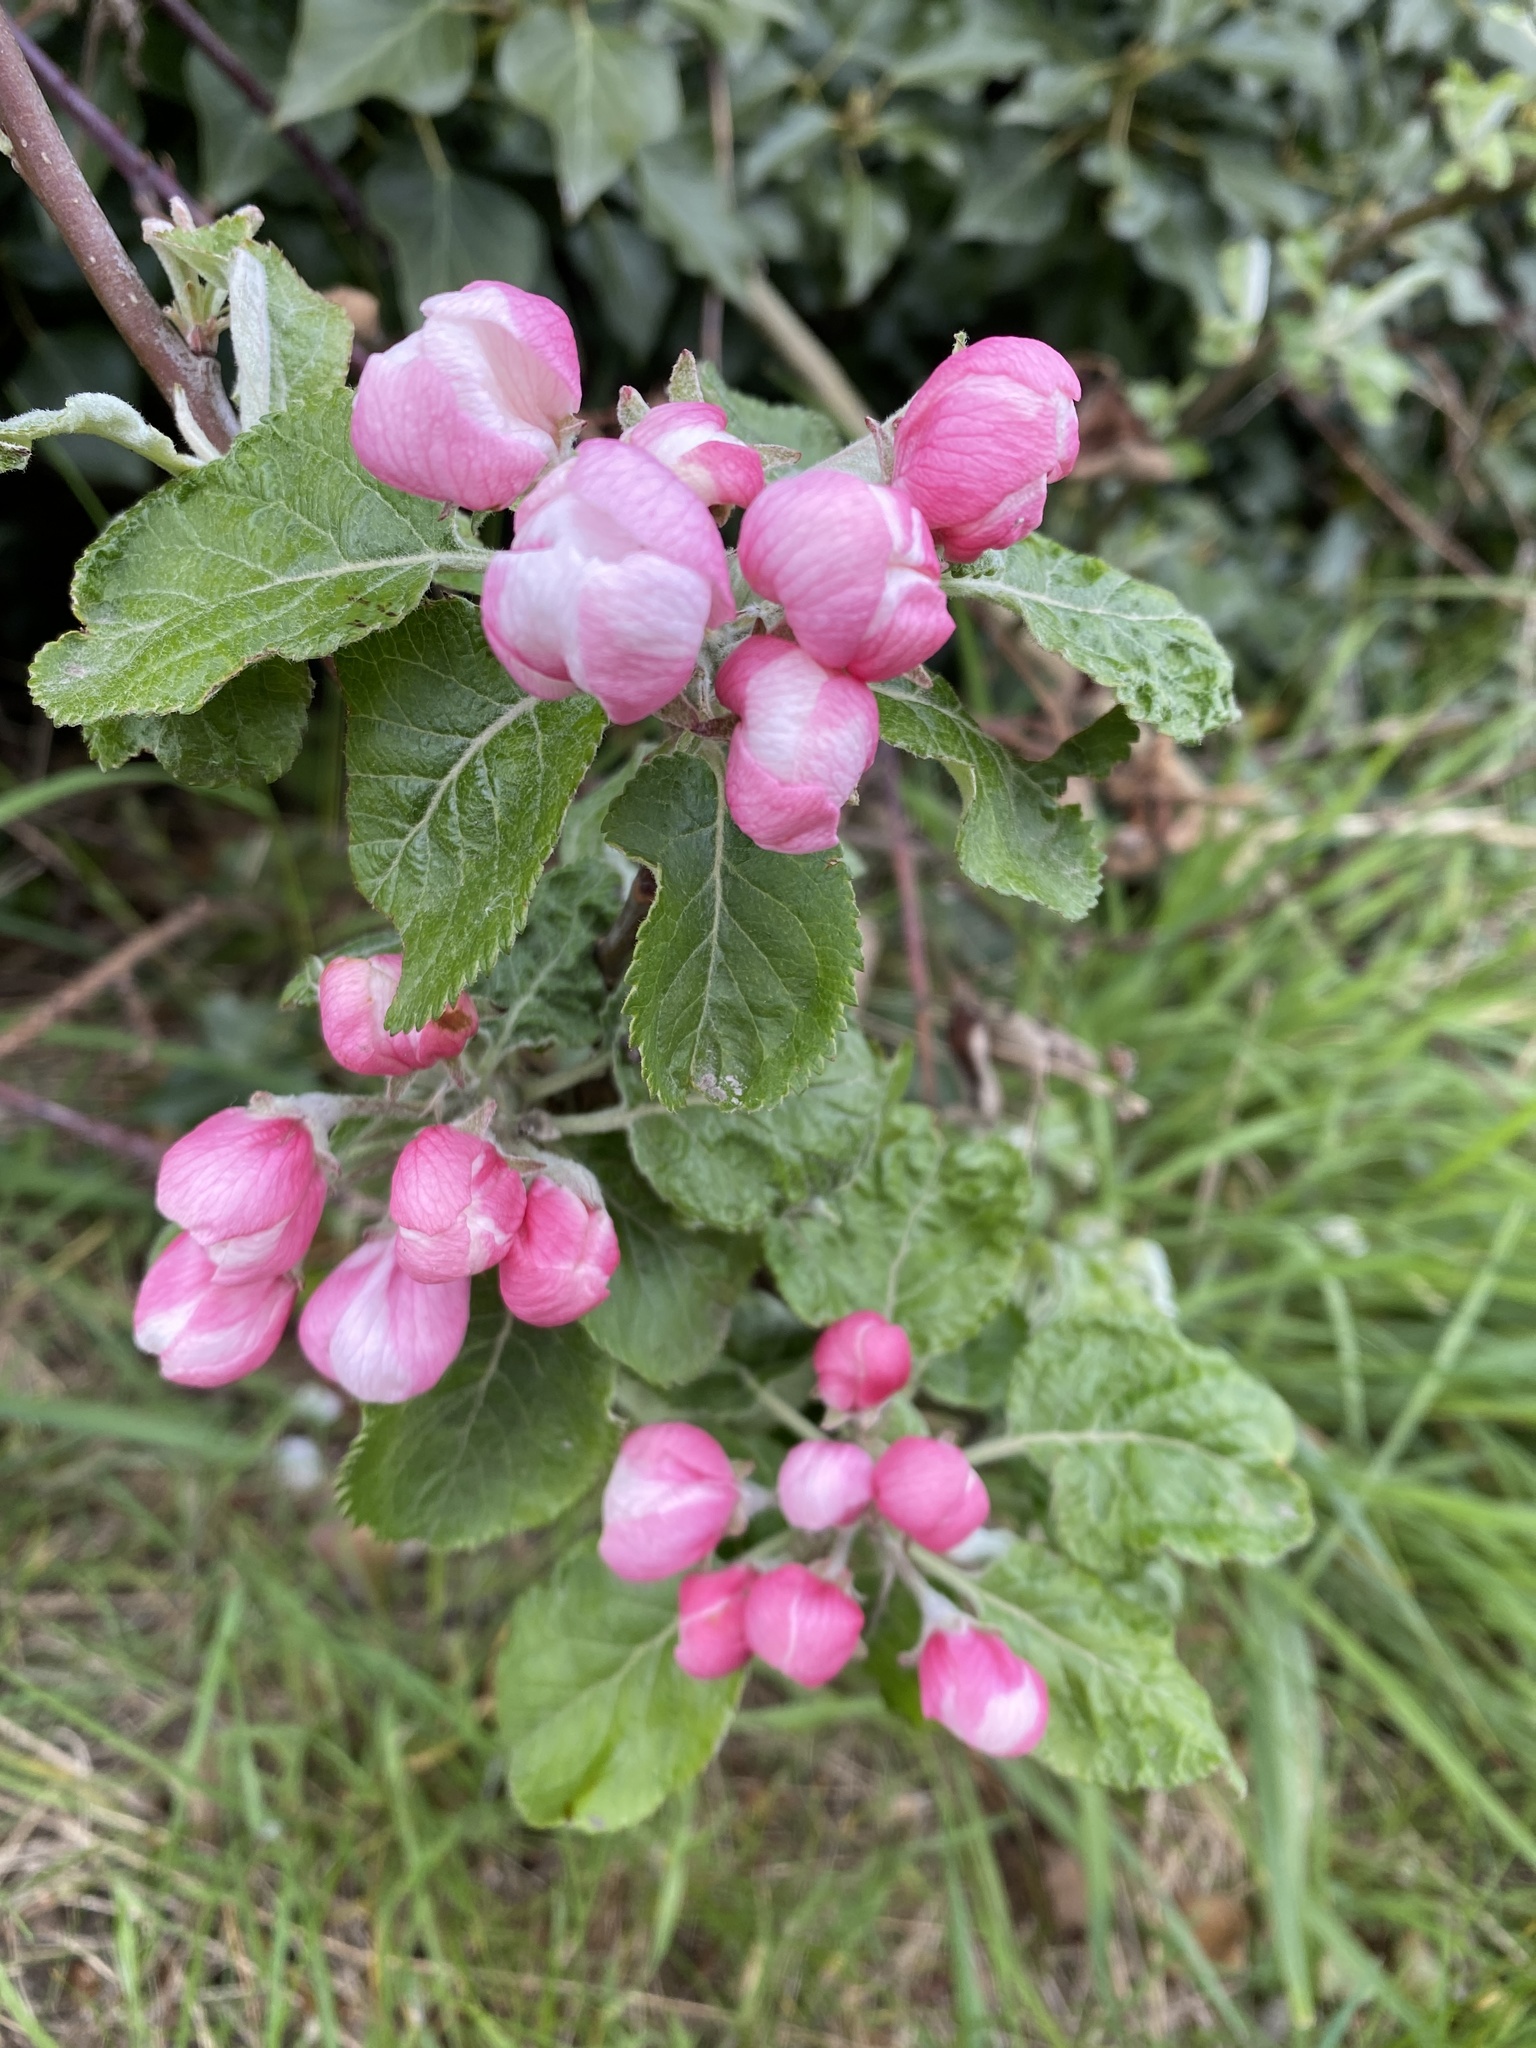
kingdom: Plantae
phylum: Tracheophyta
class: Magnoliopsida
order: Rosales
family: Rosaceae
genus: Malus
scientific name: Malus domestica
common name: Apple
